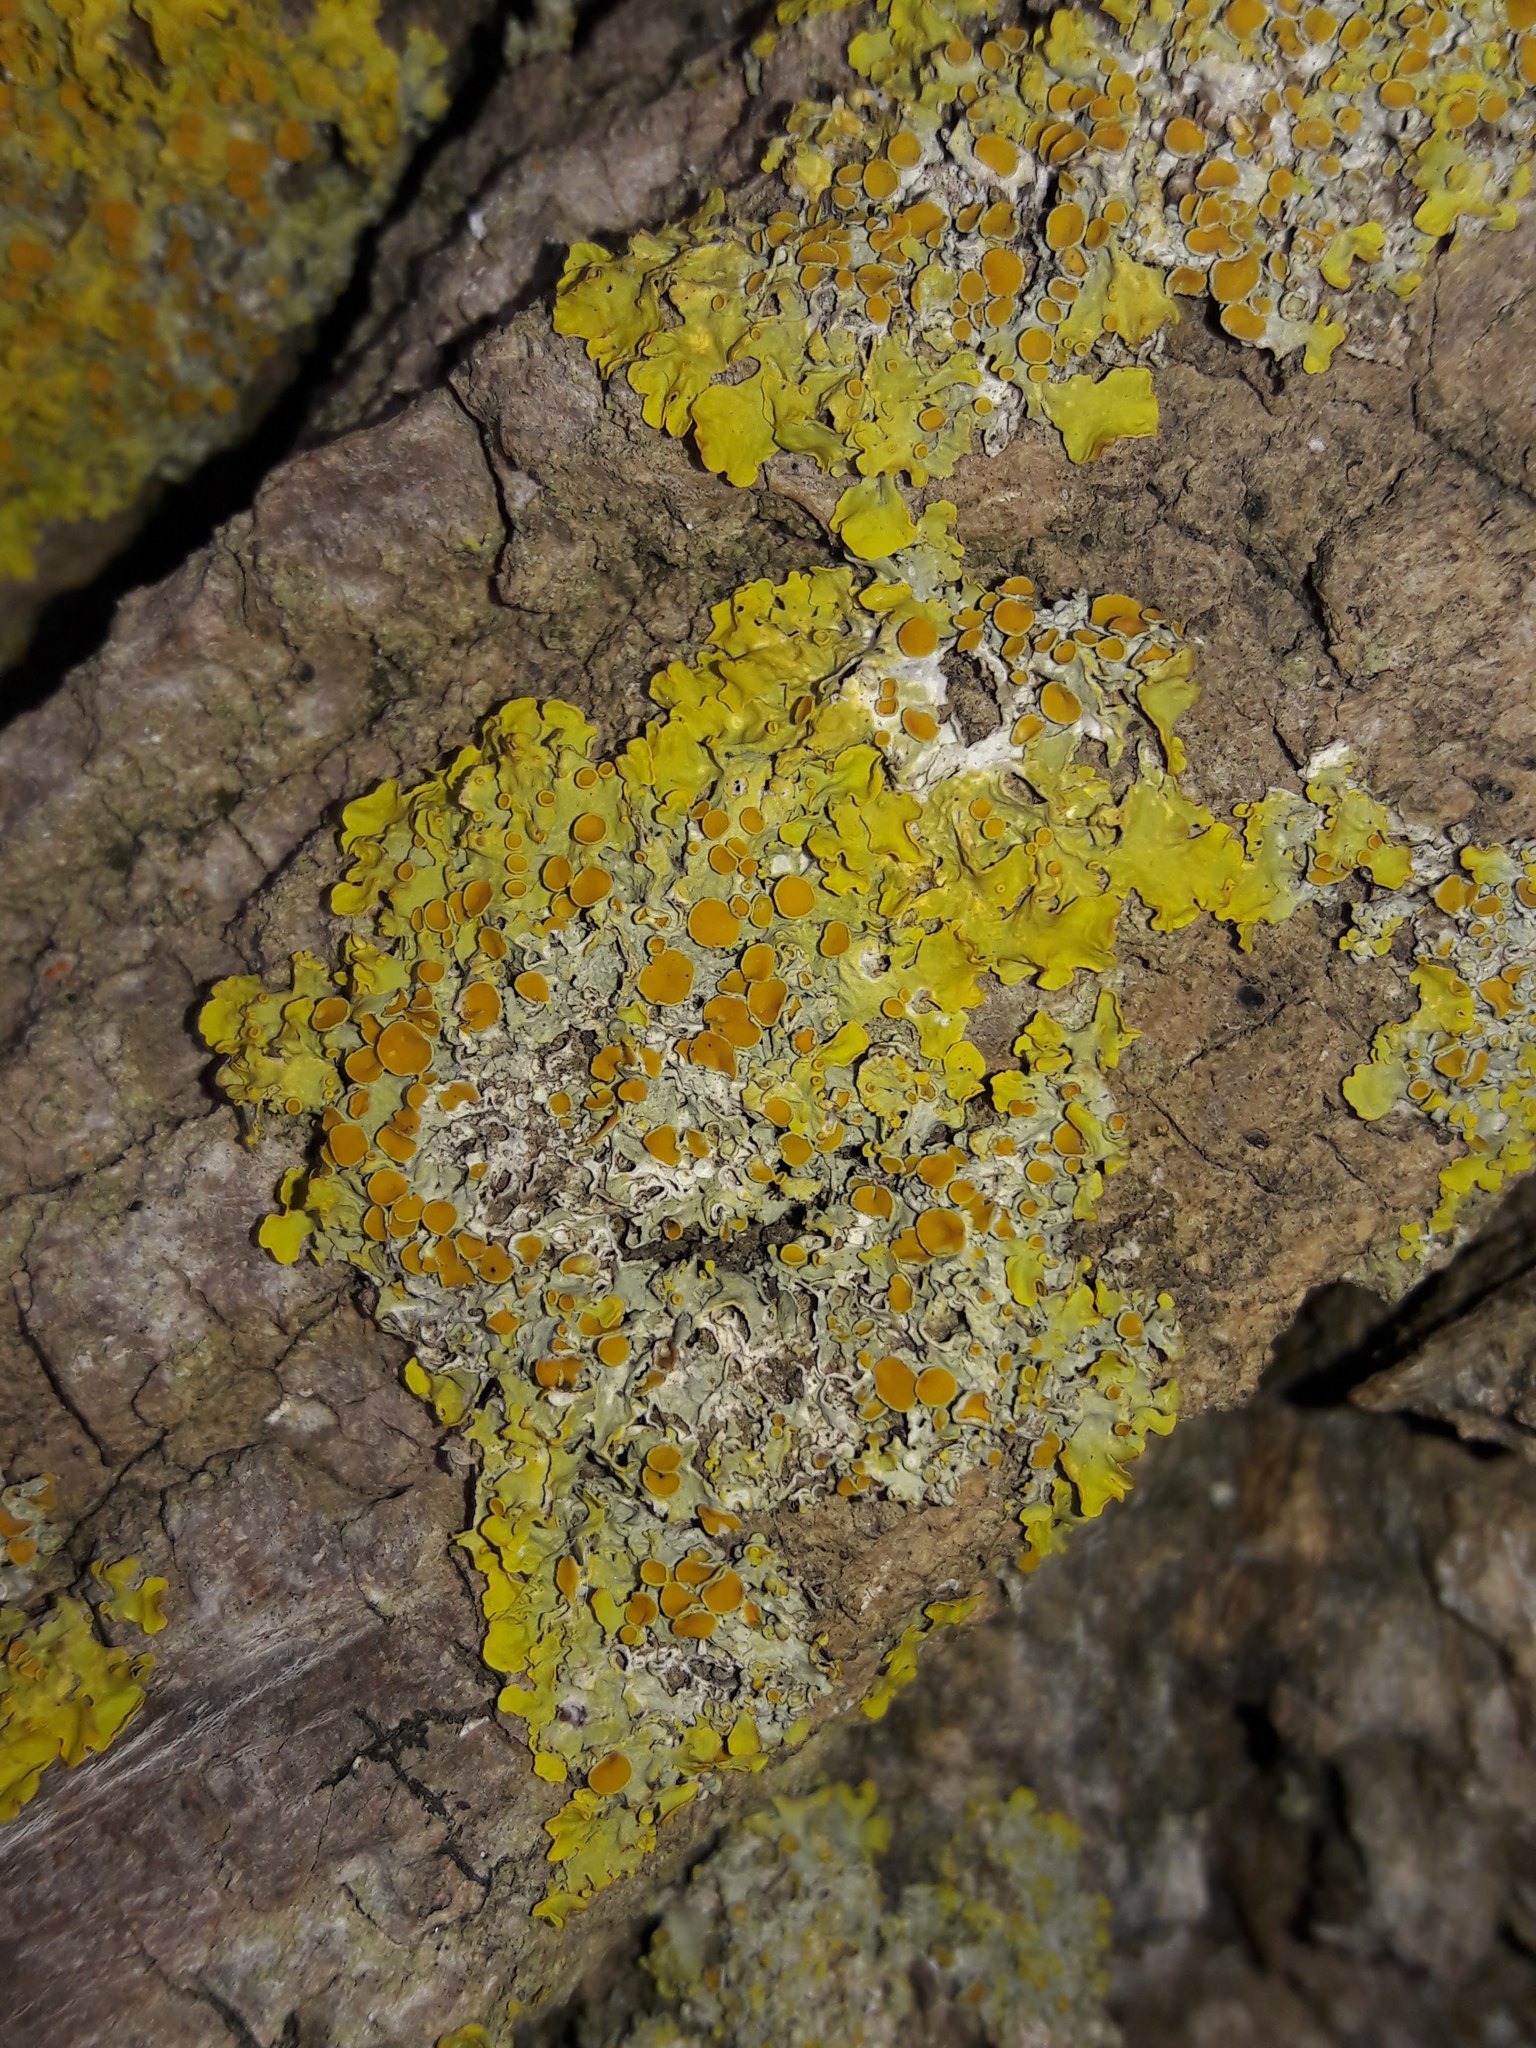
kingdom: Fungi
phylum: Ascomycota
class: Lecanoromycetes
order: Teloschistales
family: Teloschistaceae
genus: Xanthoria
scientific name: Xanthoria parietina
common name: Common orange lichen
